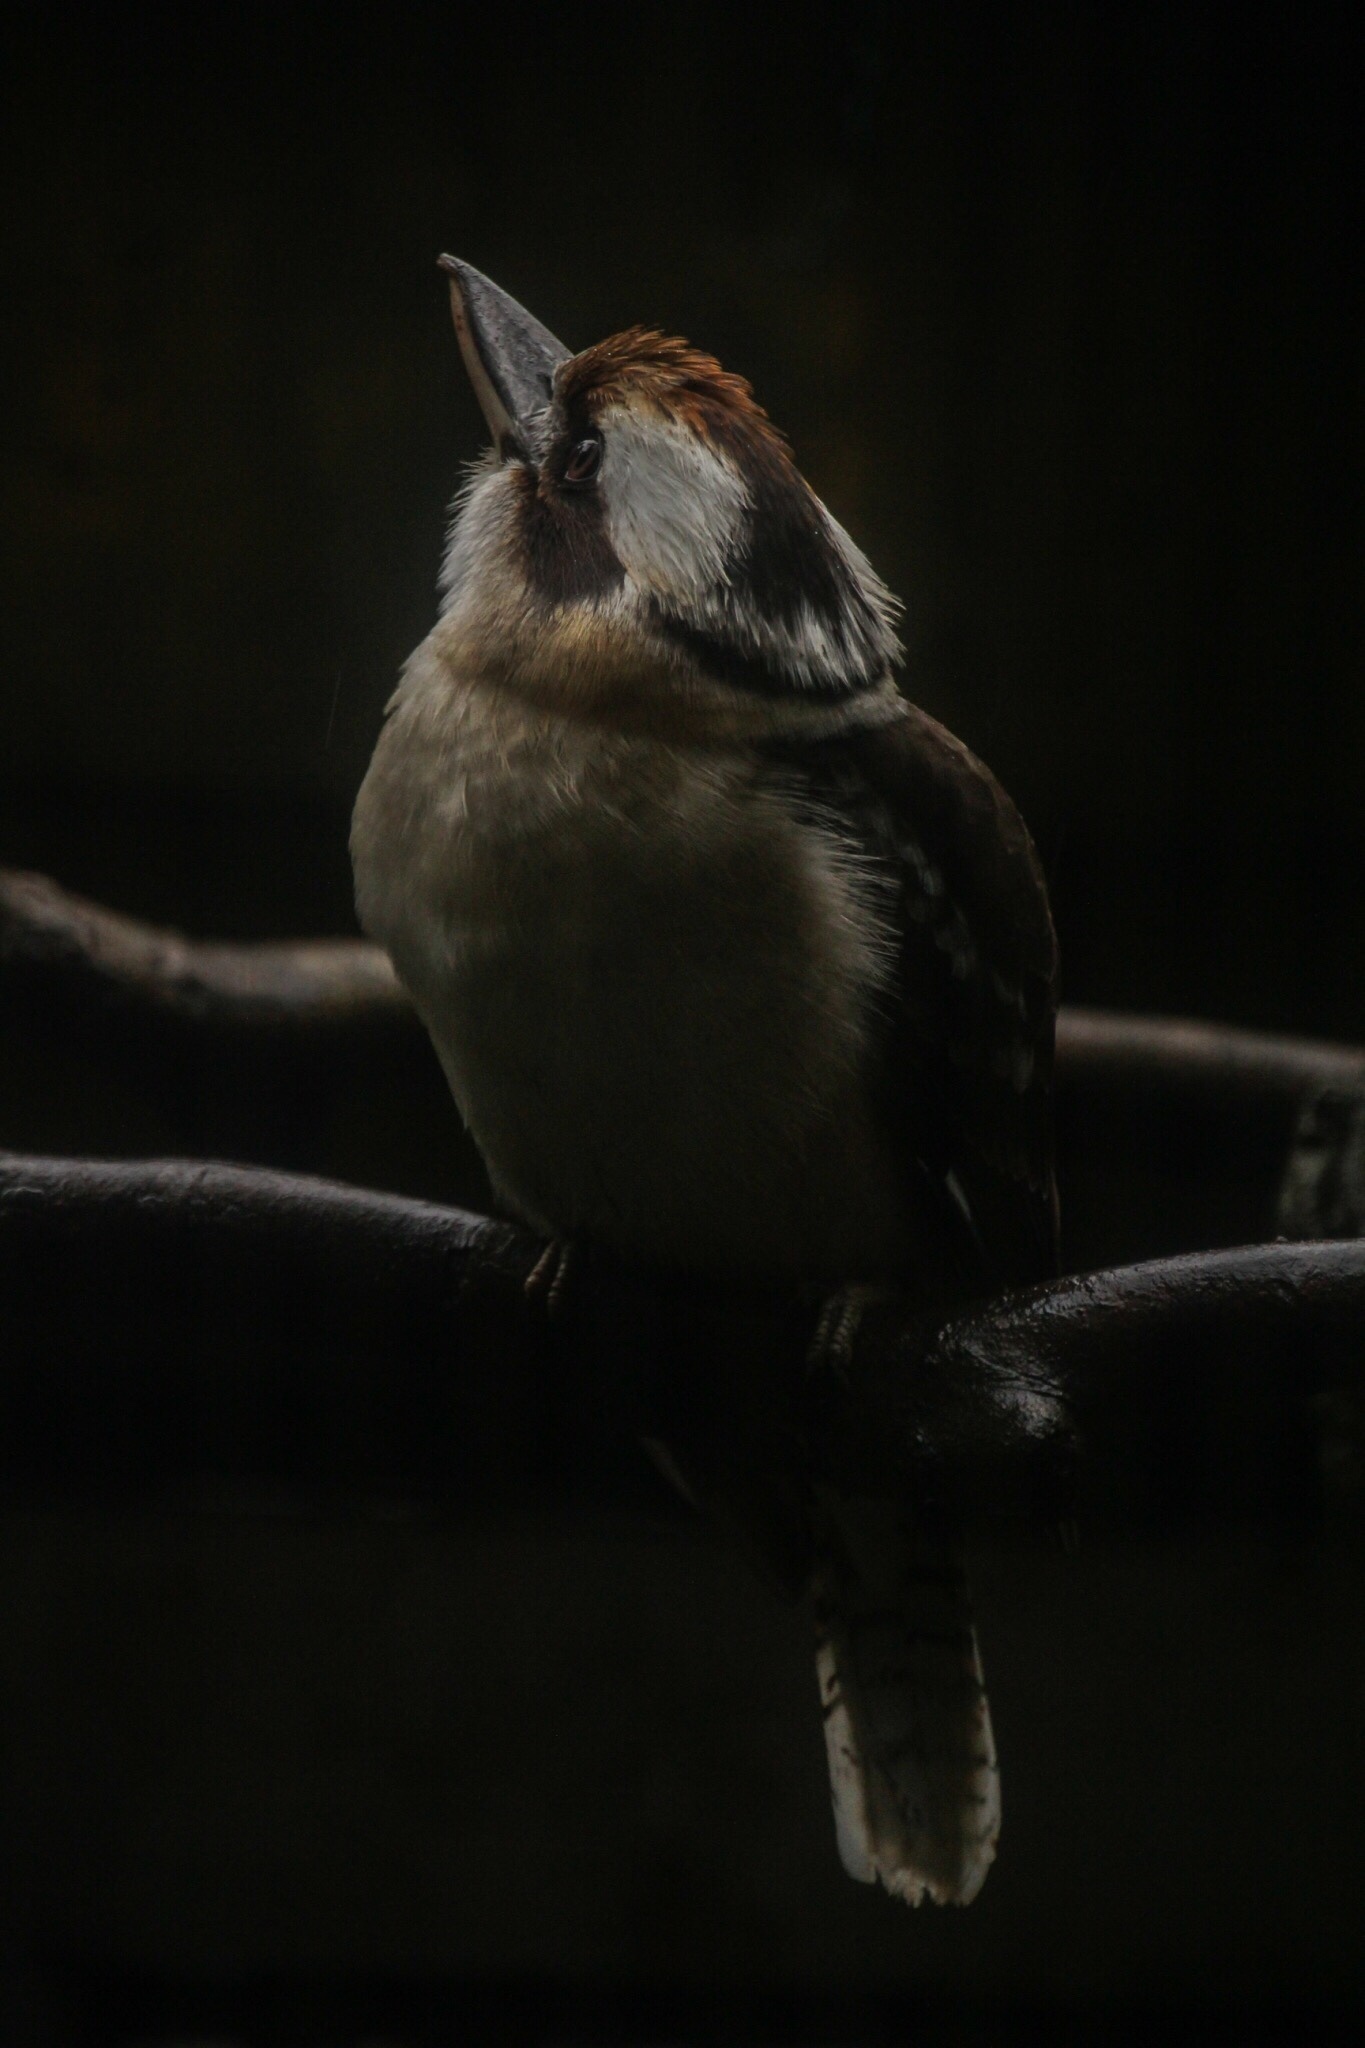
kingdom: Animalia
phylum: Chordata
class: Aves
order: Coraciiformes
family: Alcedinidae
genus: Dacelo
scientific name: Dacelo novaeguineae
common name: Laughing kookaburra
